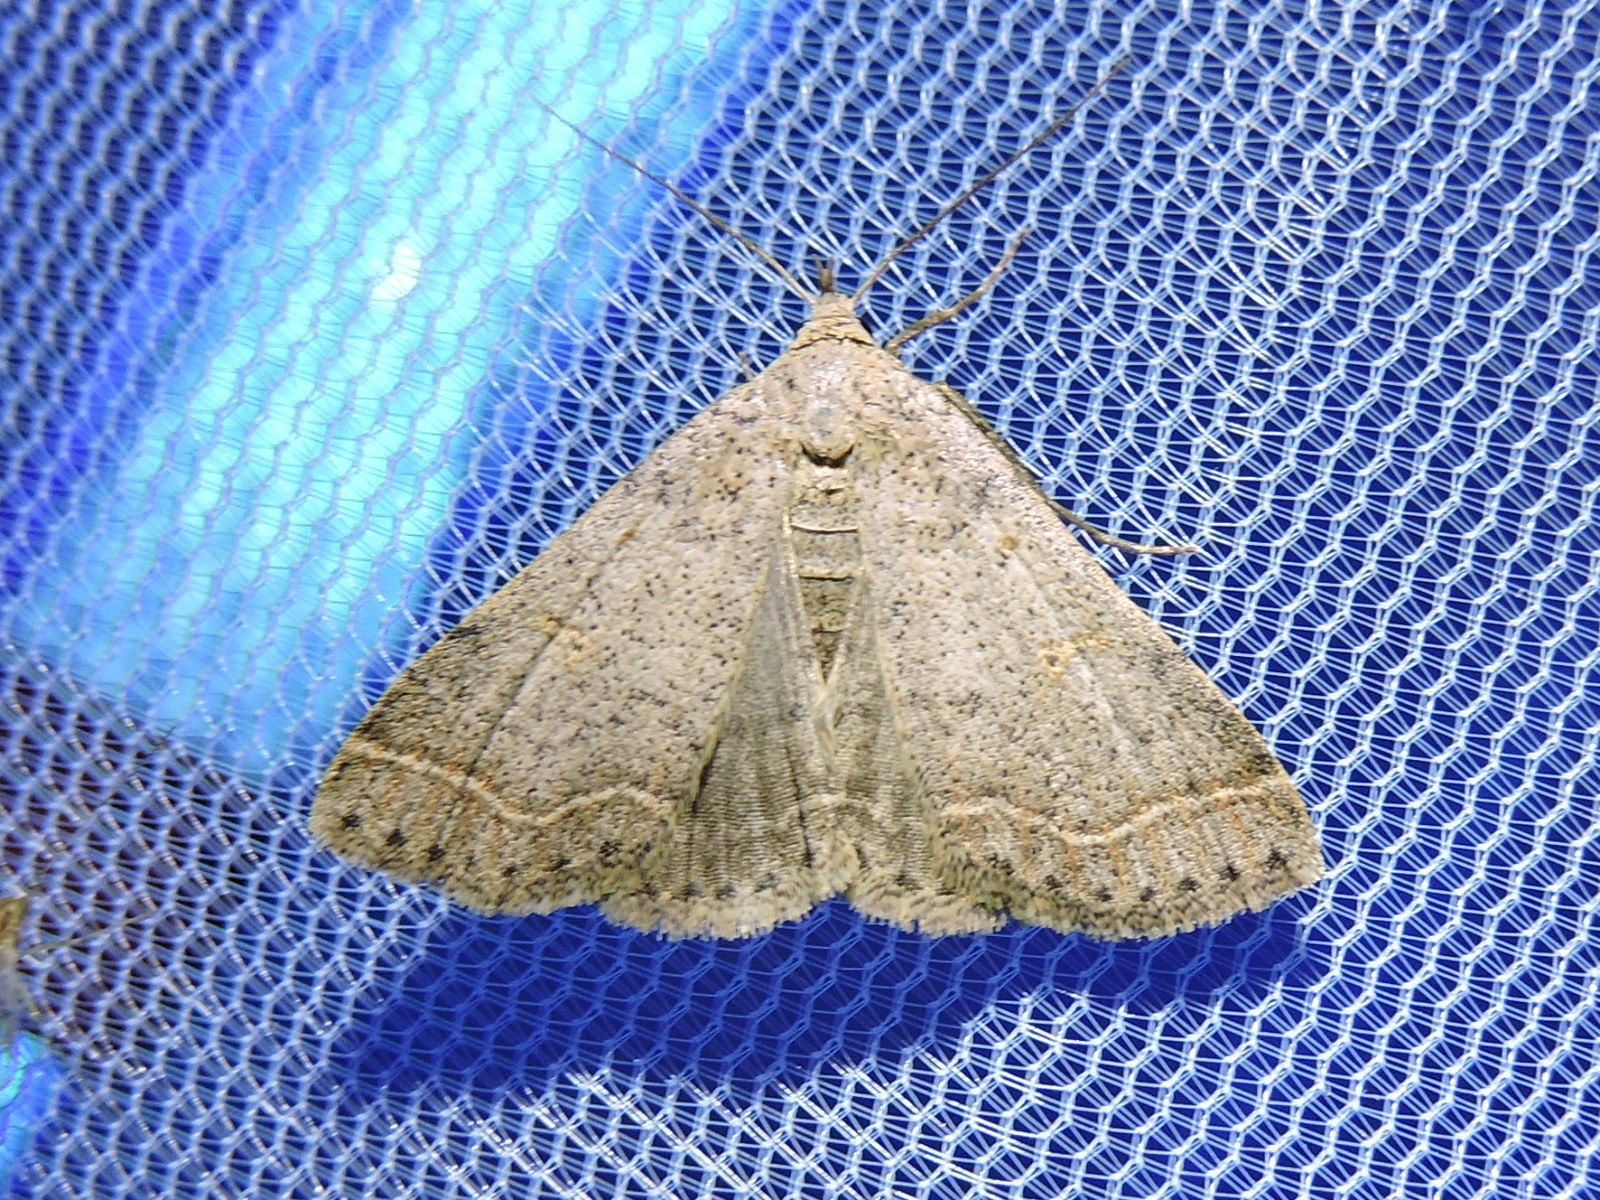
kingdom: Animalia
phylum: Arthropoda
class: Insecta
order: Lepidoptera
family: Erebidae
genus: Bleptina
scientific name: Bleptina caradrinalis
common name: Bent-winged owlet
